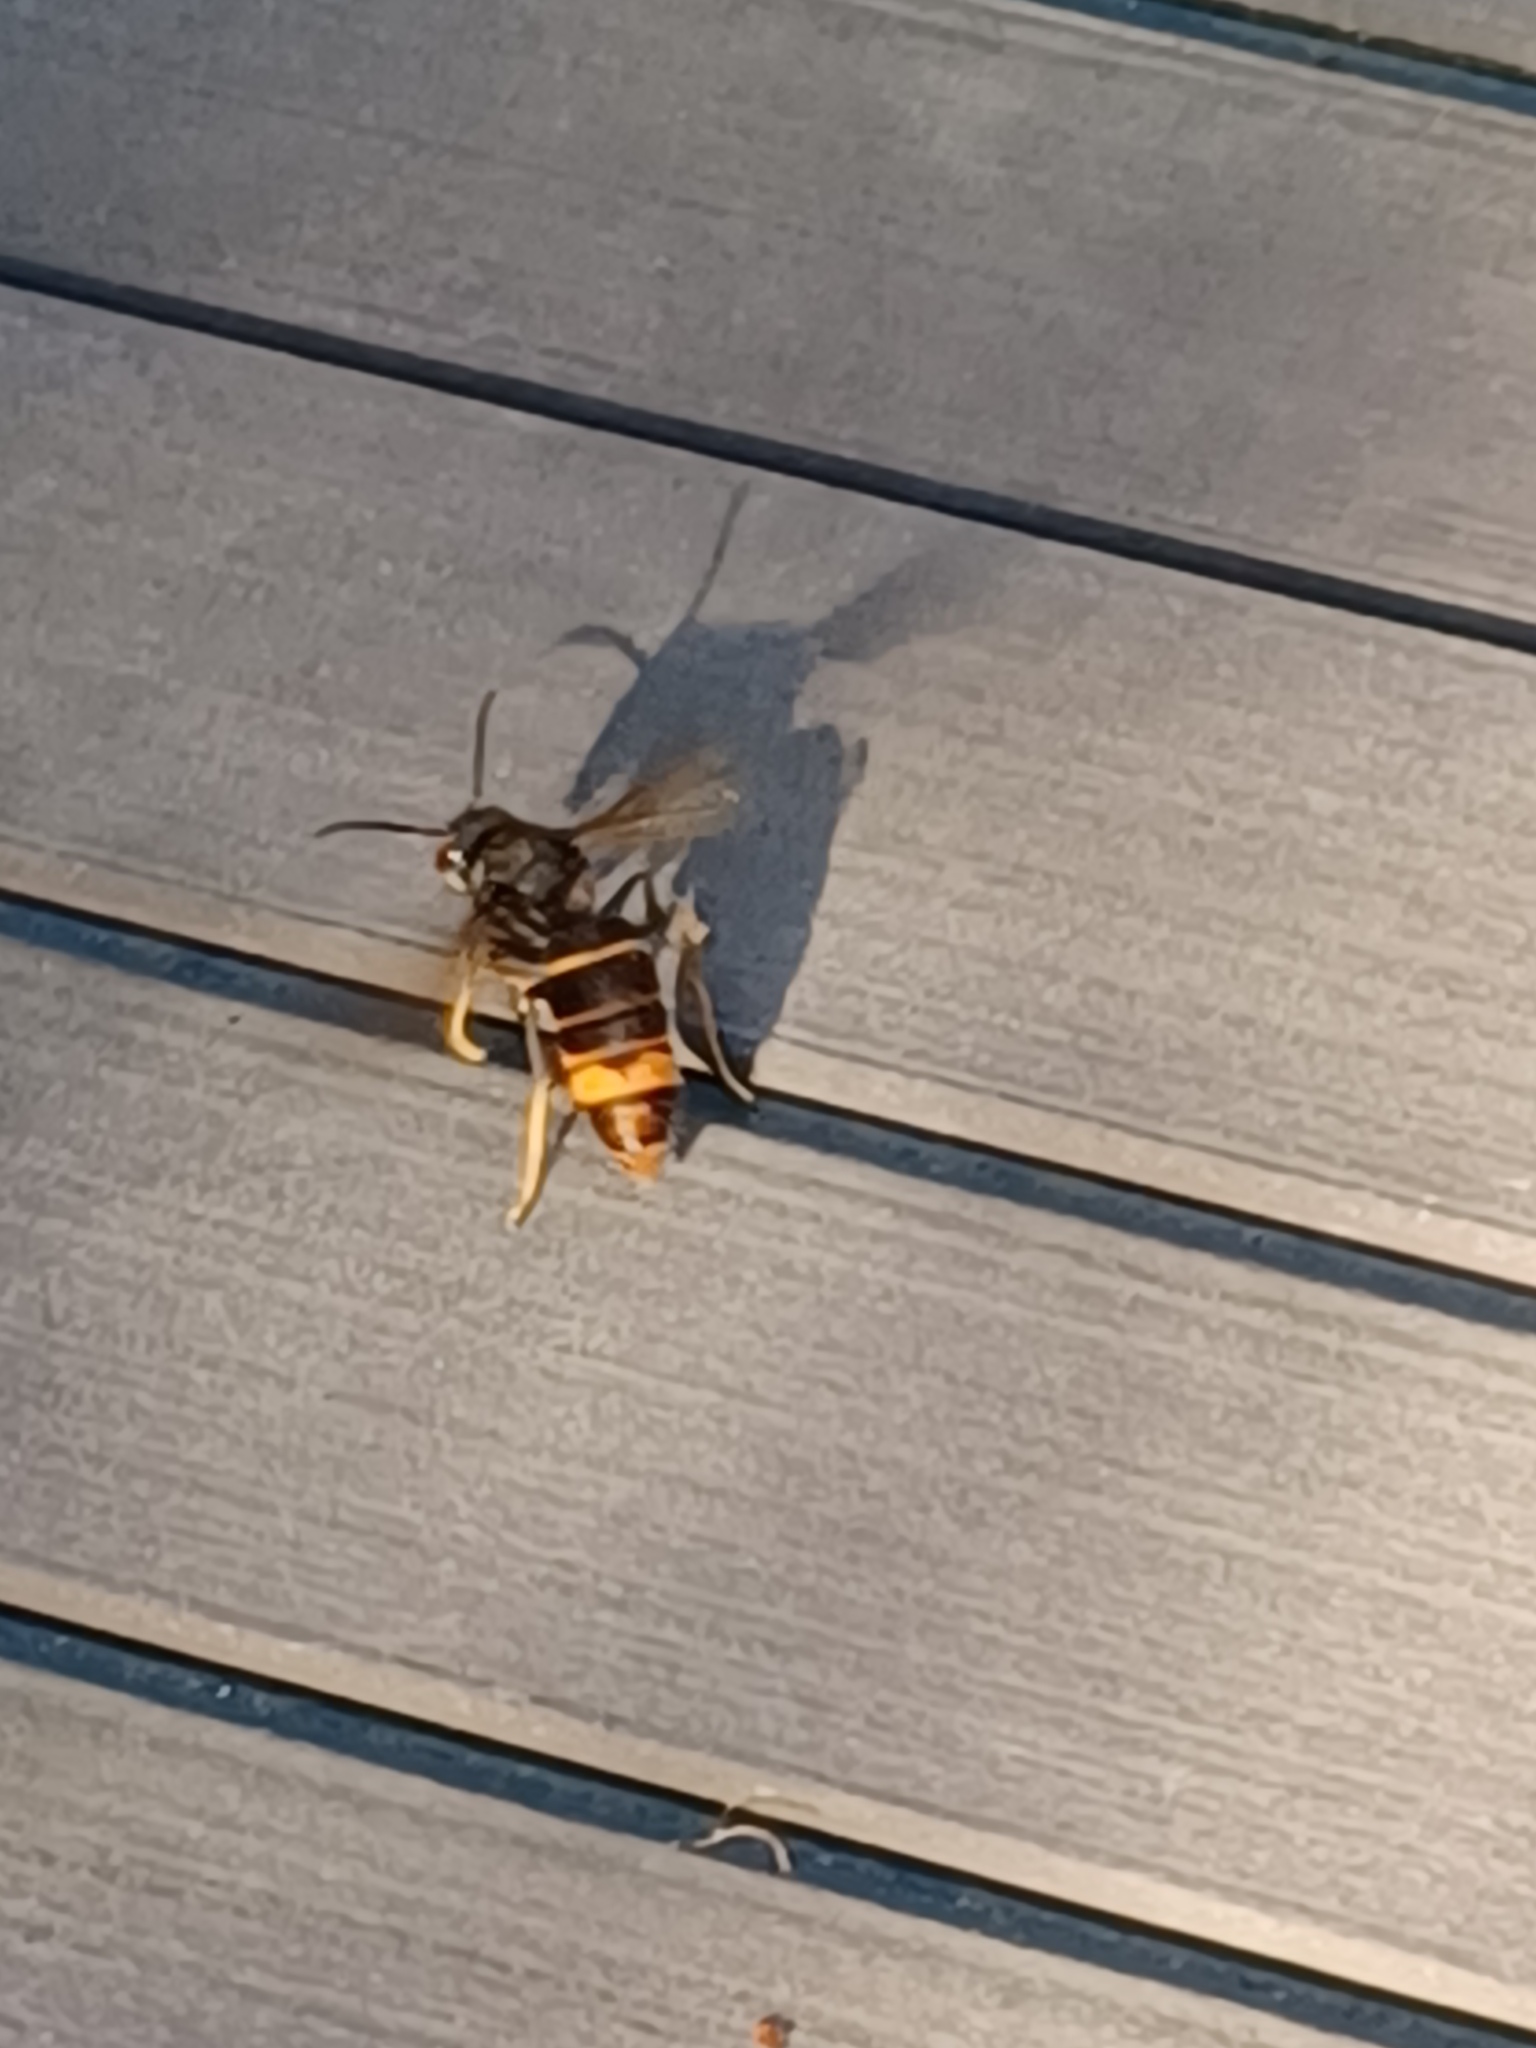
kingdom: Animalia
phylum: Arthropoda
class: Insecta
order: Hymenoptera
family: Vespidae
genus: Vespa
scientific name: Vespa velutina
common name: Asian hornet
